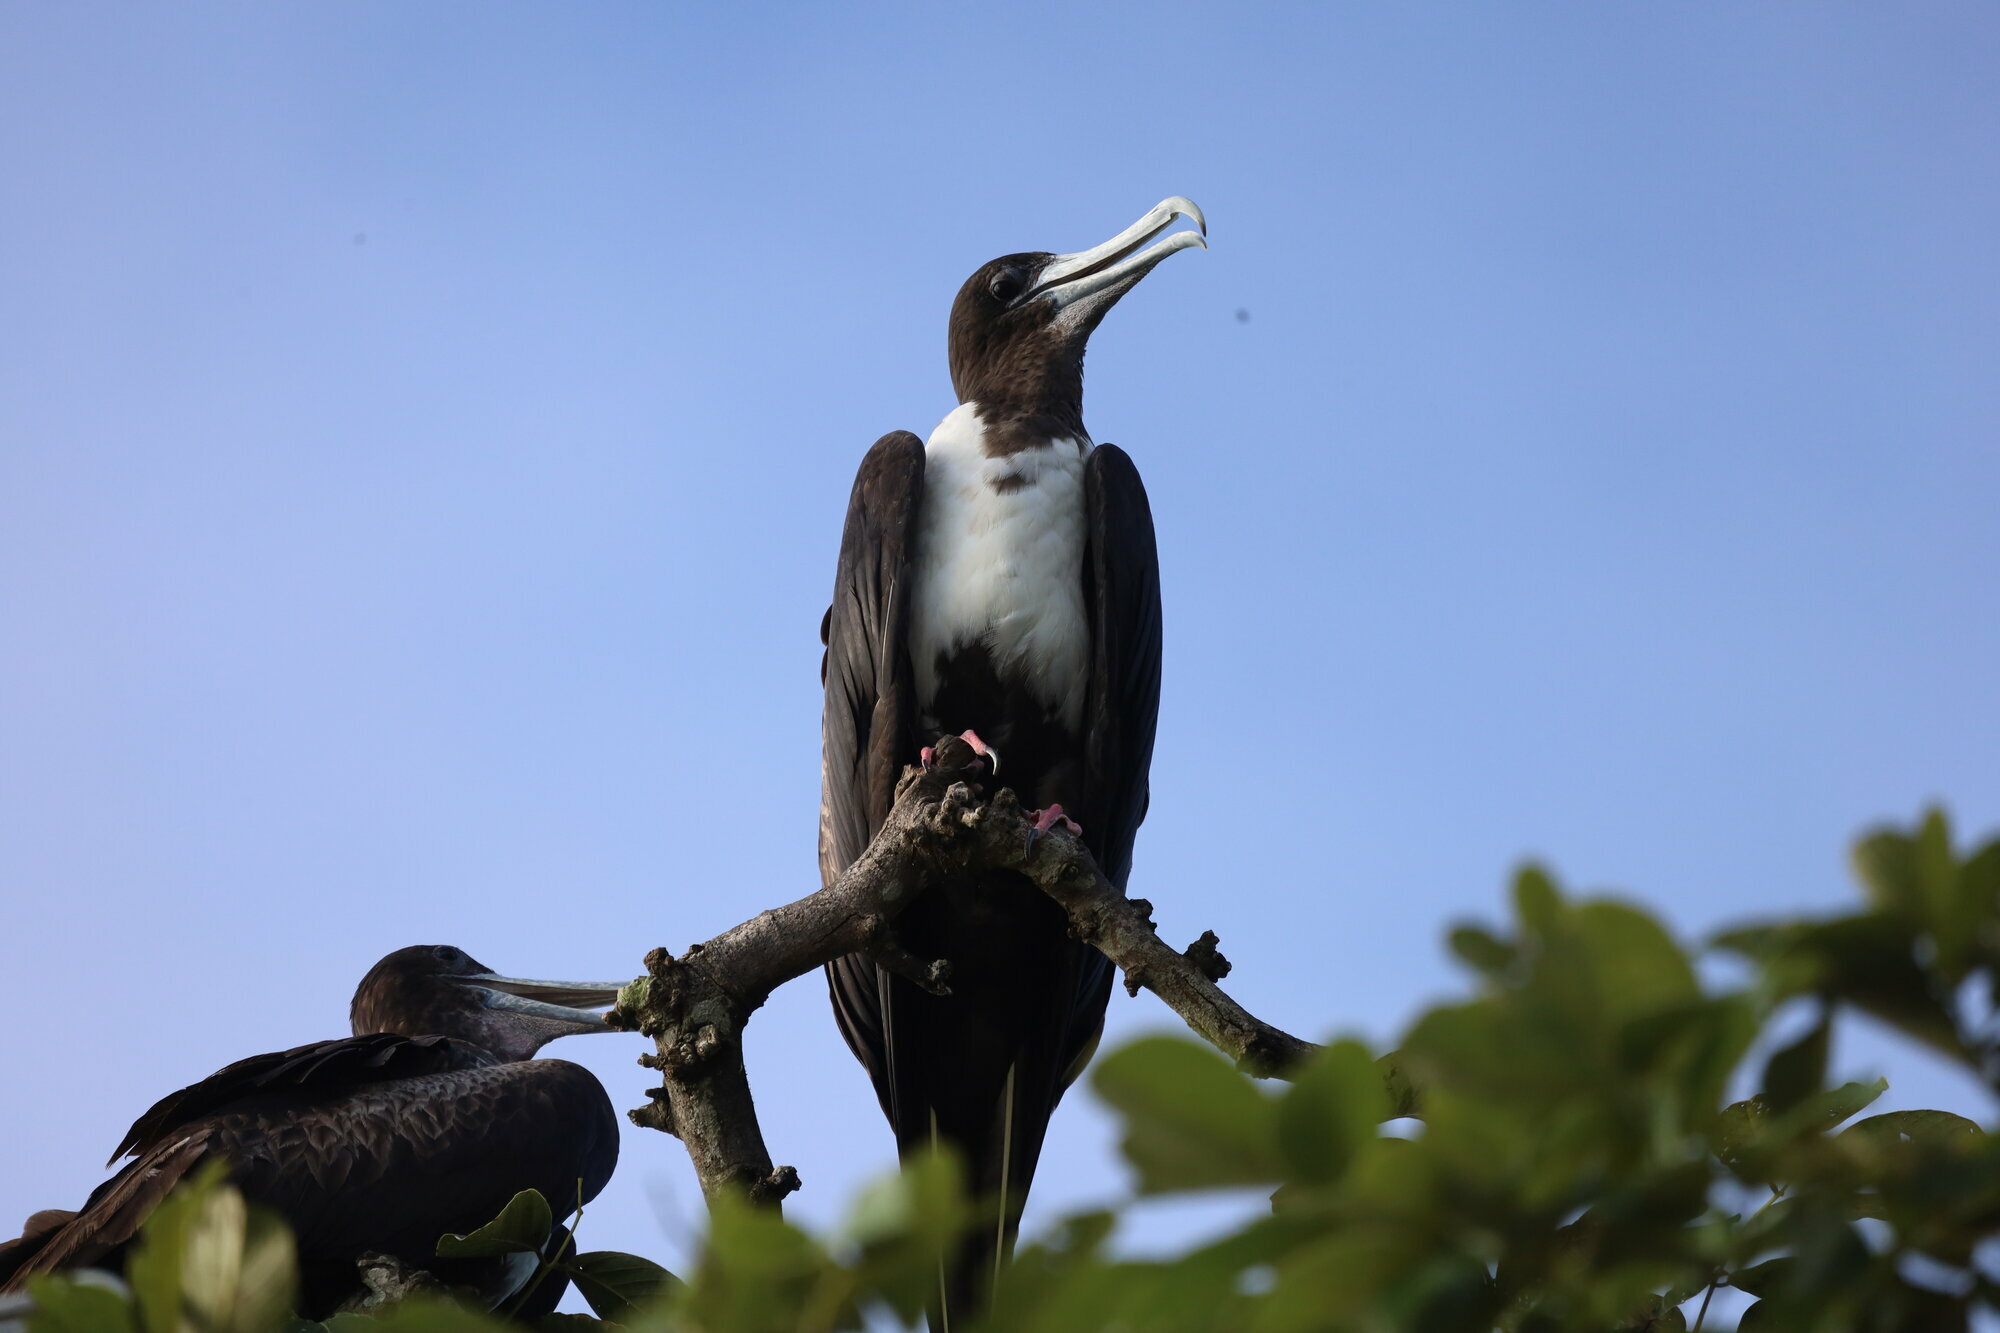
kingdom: Animalia
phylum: Chordata
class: Aves
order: Suliformes
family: Fregatidae
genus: Fregata
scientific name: Fregata magnificens
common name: Magnificent frigatebird
